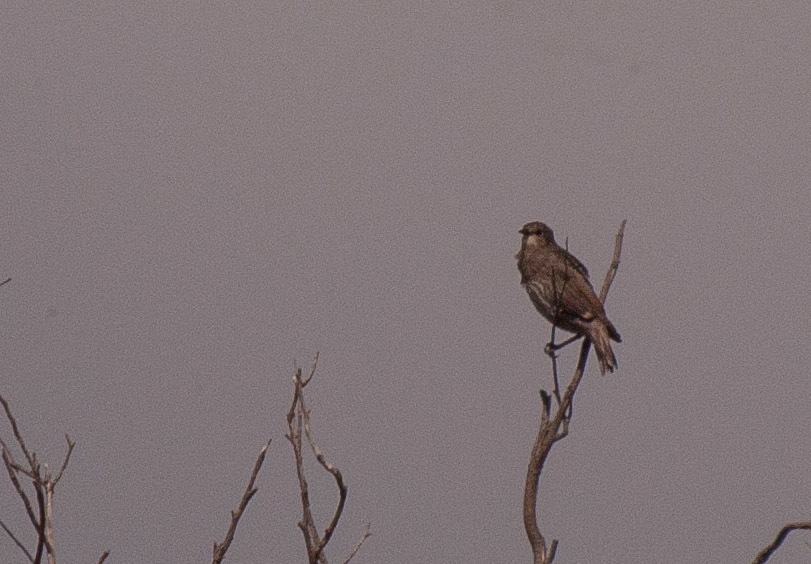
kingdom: Animalia
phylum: Chordata
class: Aves
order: Passeriformes
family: Sturnidae
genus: Sturnus
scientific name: Sturnus vulgaris
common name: Common starling
